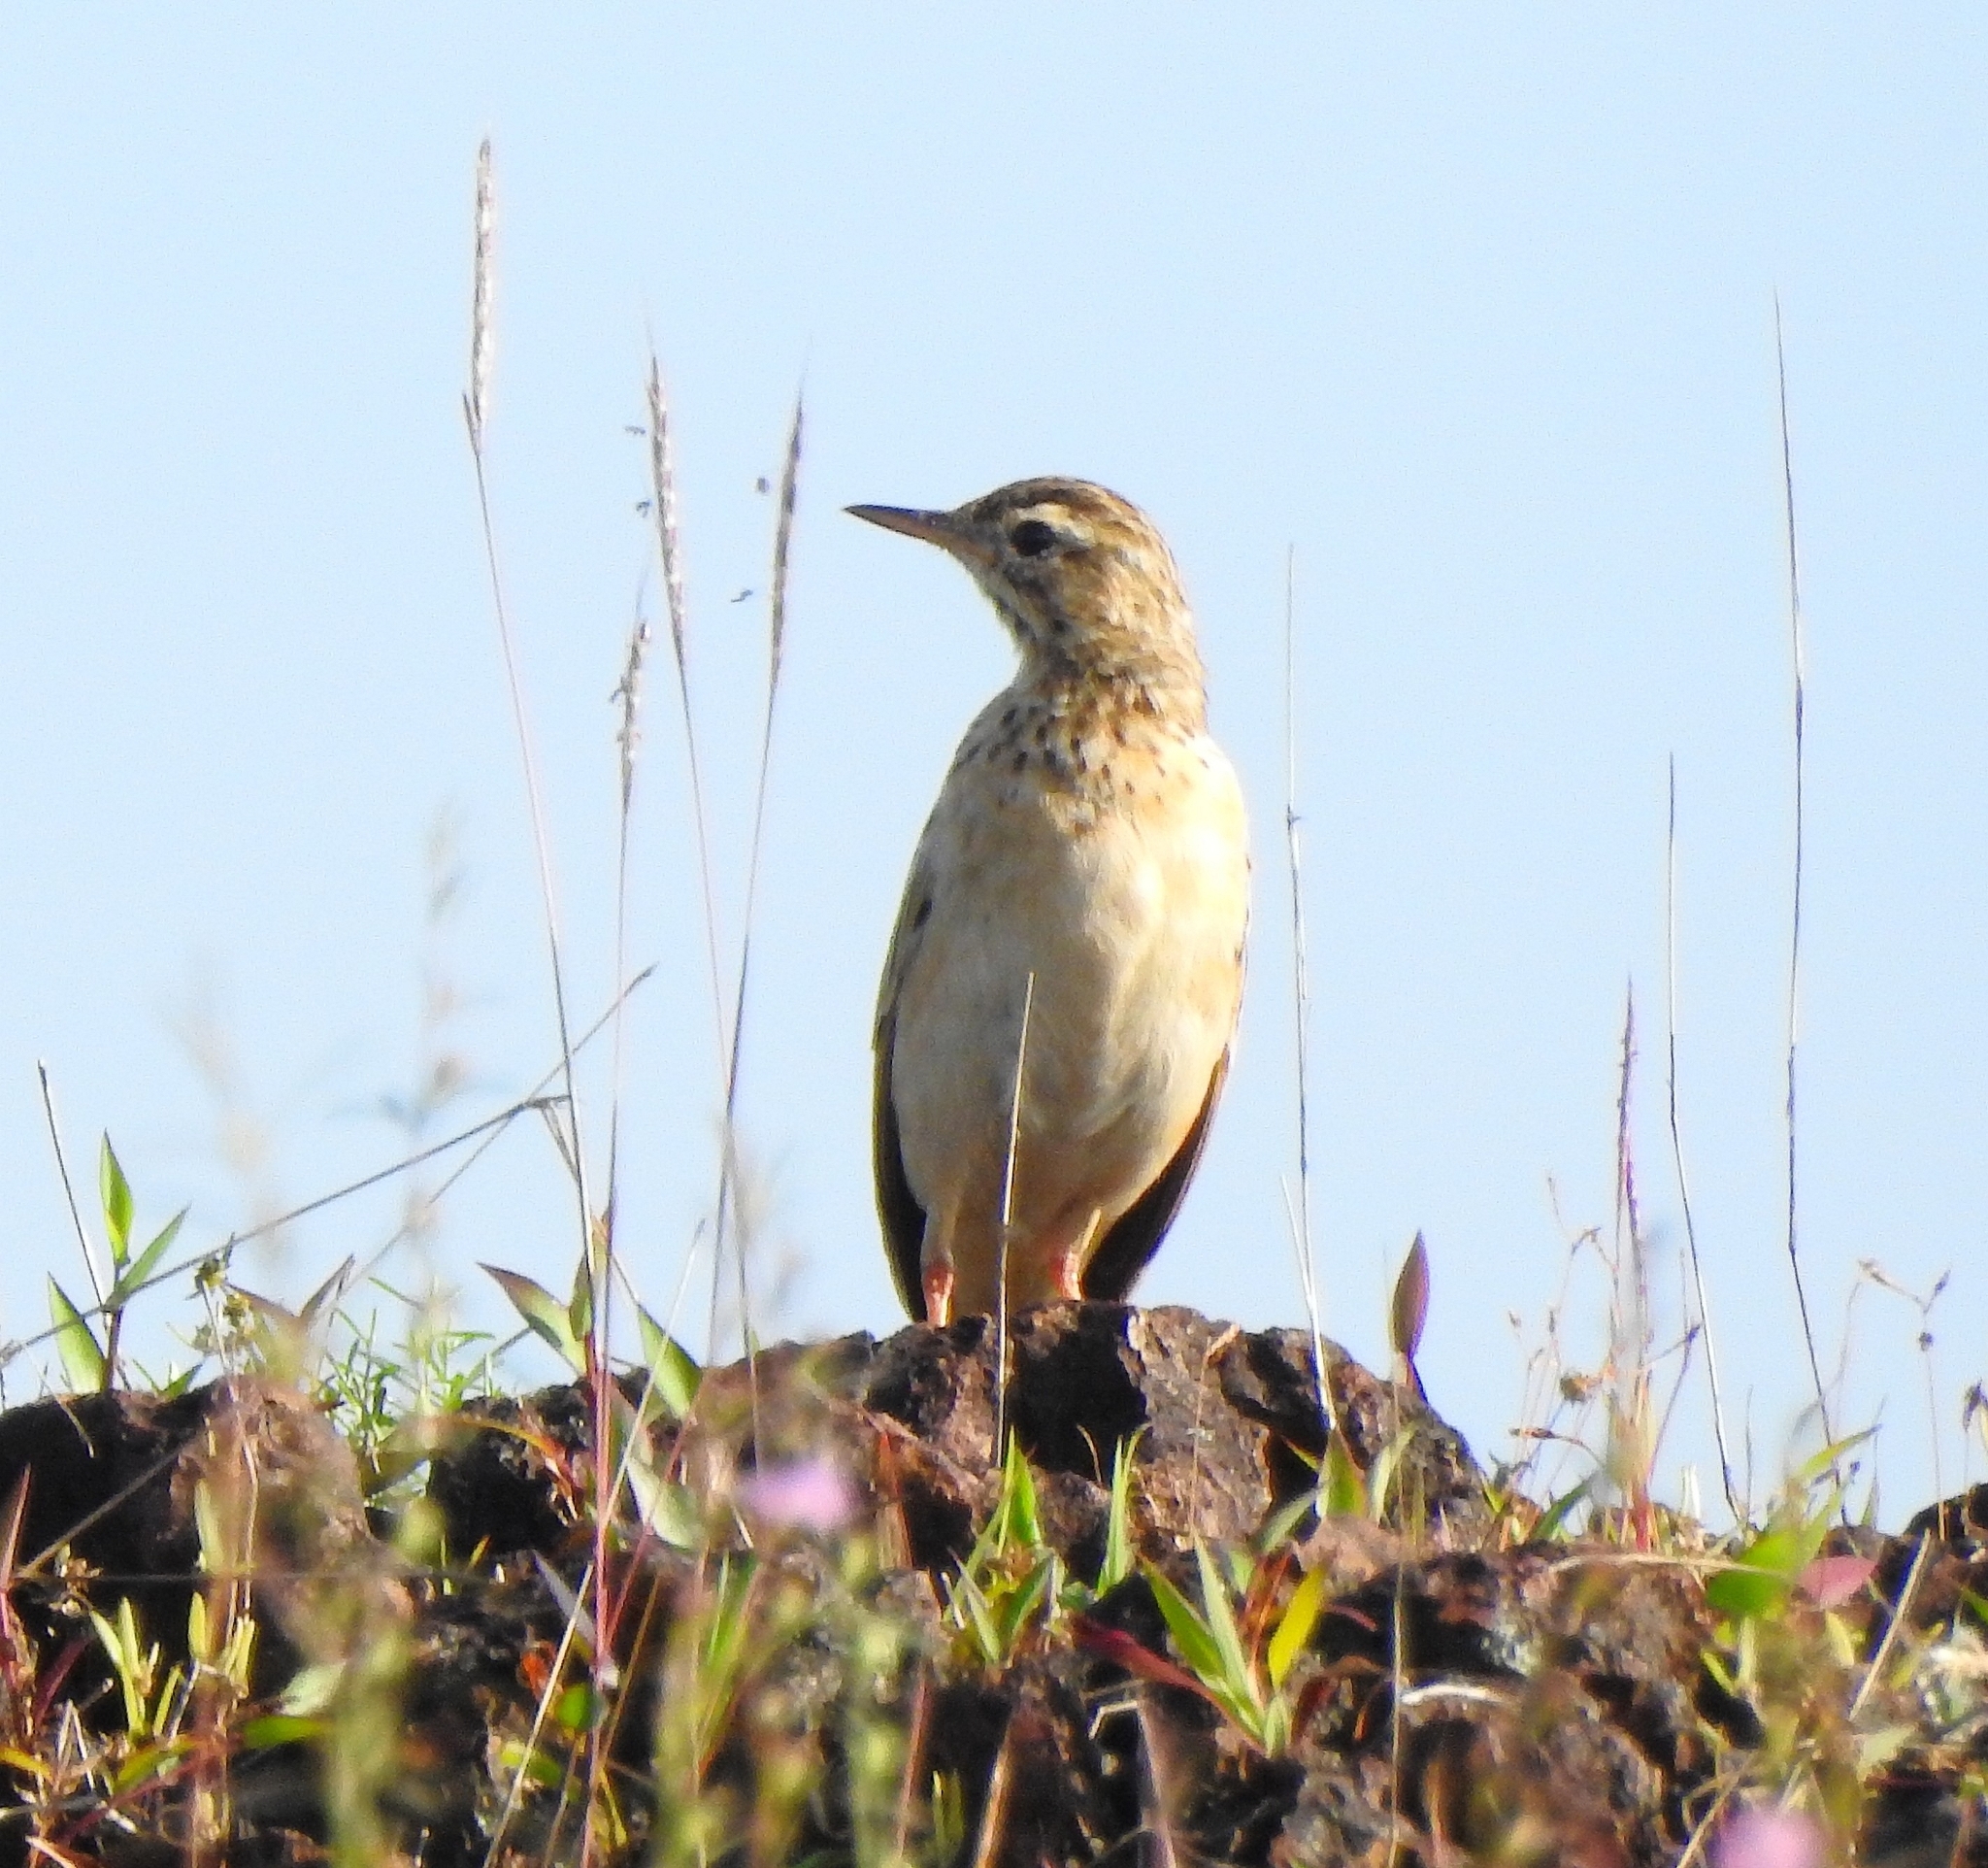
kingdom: Animalia
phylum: Chordata
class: Aves
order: Passeriformes
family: Motacillidae
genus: Anthus
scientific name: Anthus rufulus
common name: Paddyfield pipit
